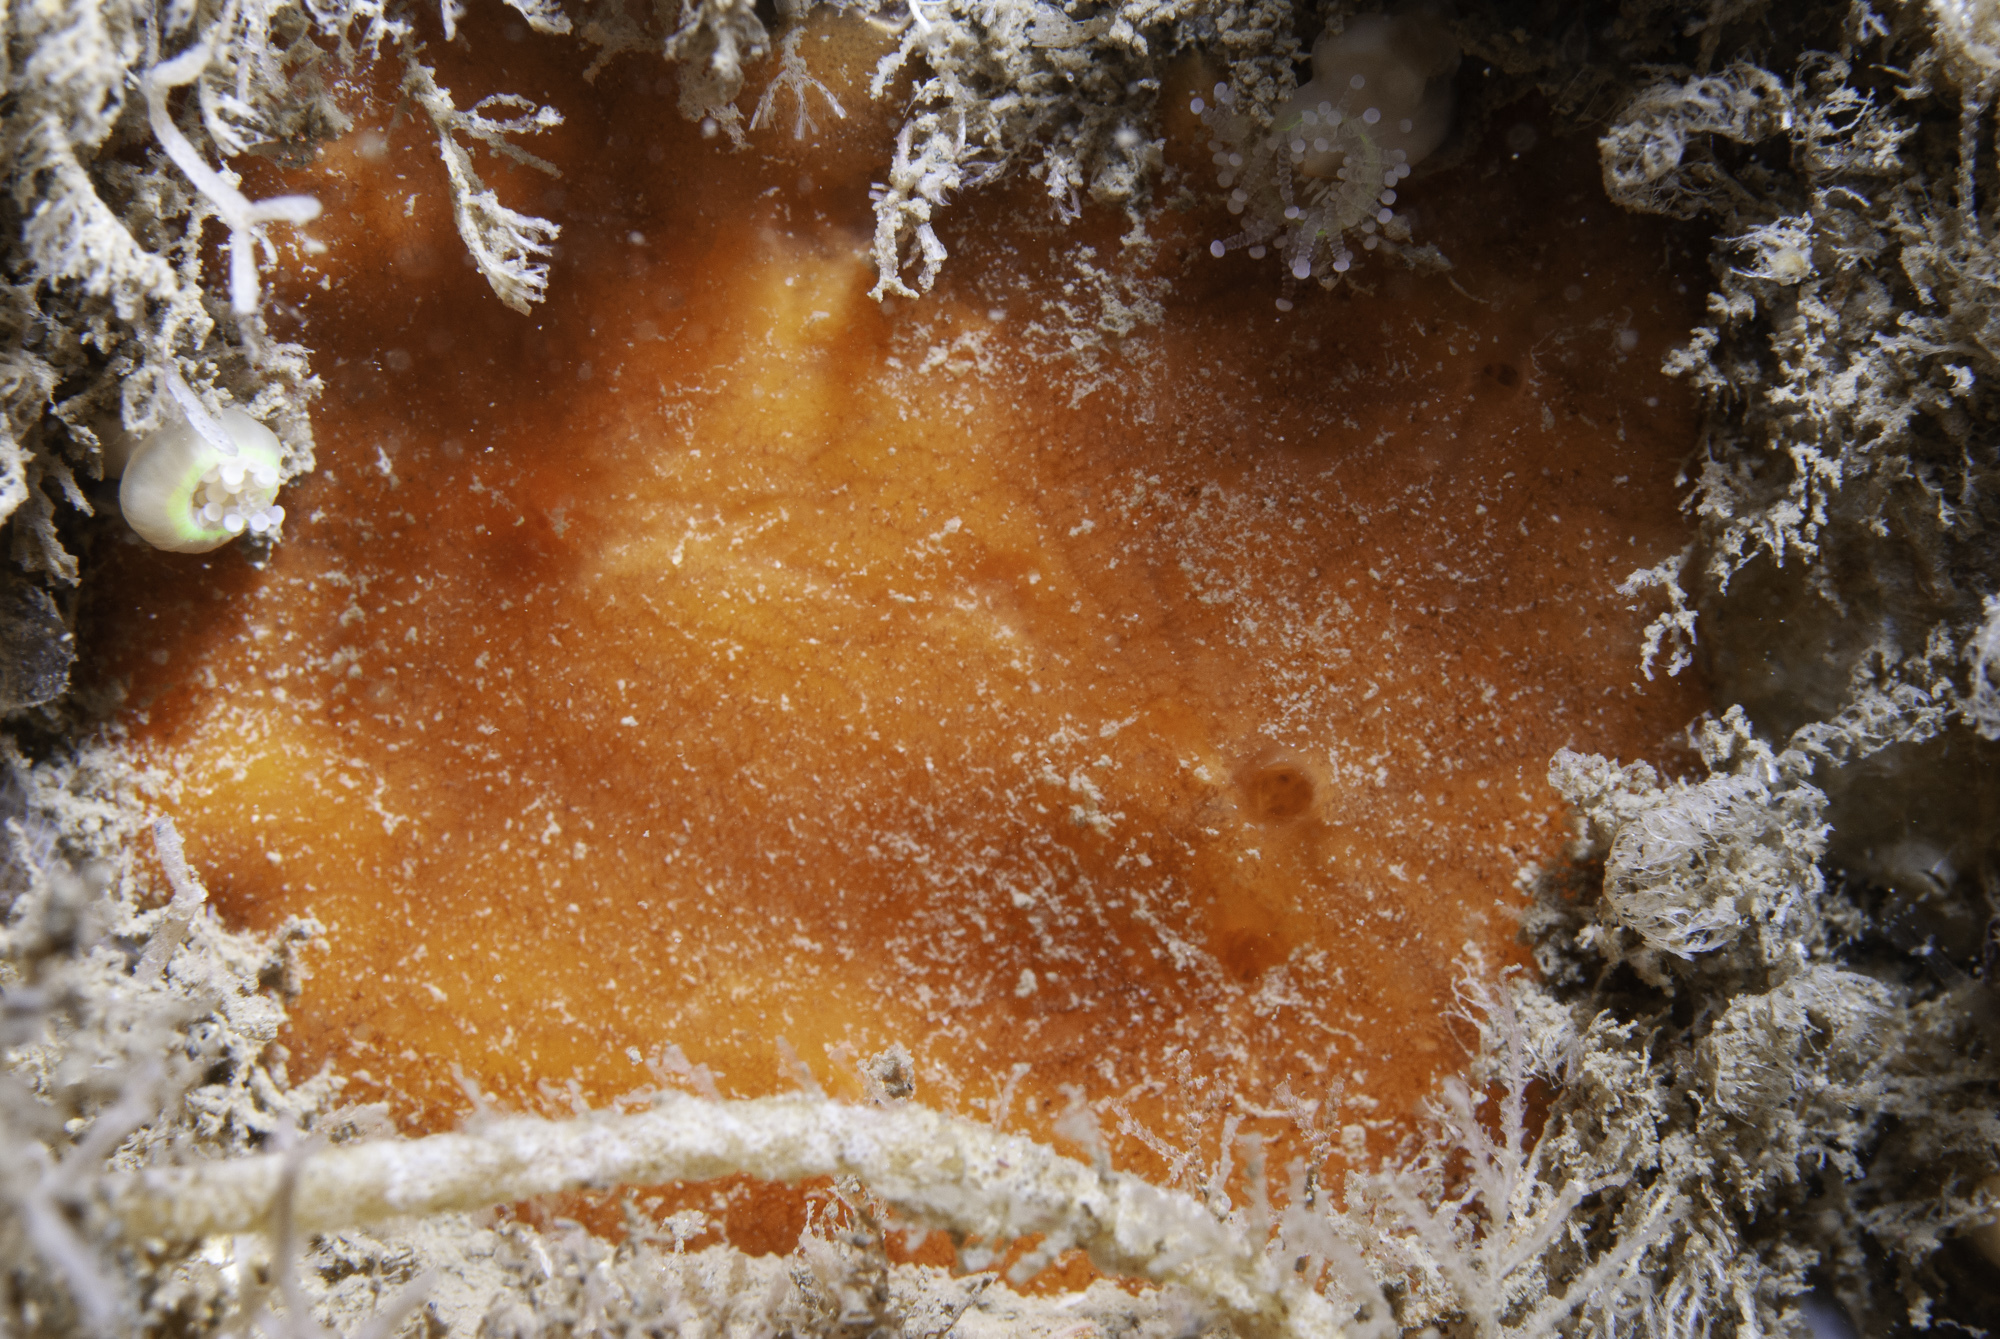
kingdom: Animalia
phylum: Porifera
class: Demospongiae
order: Poecilosclerida
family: Microcionidae
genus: Antho
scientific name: Antho involvens
